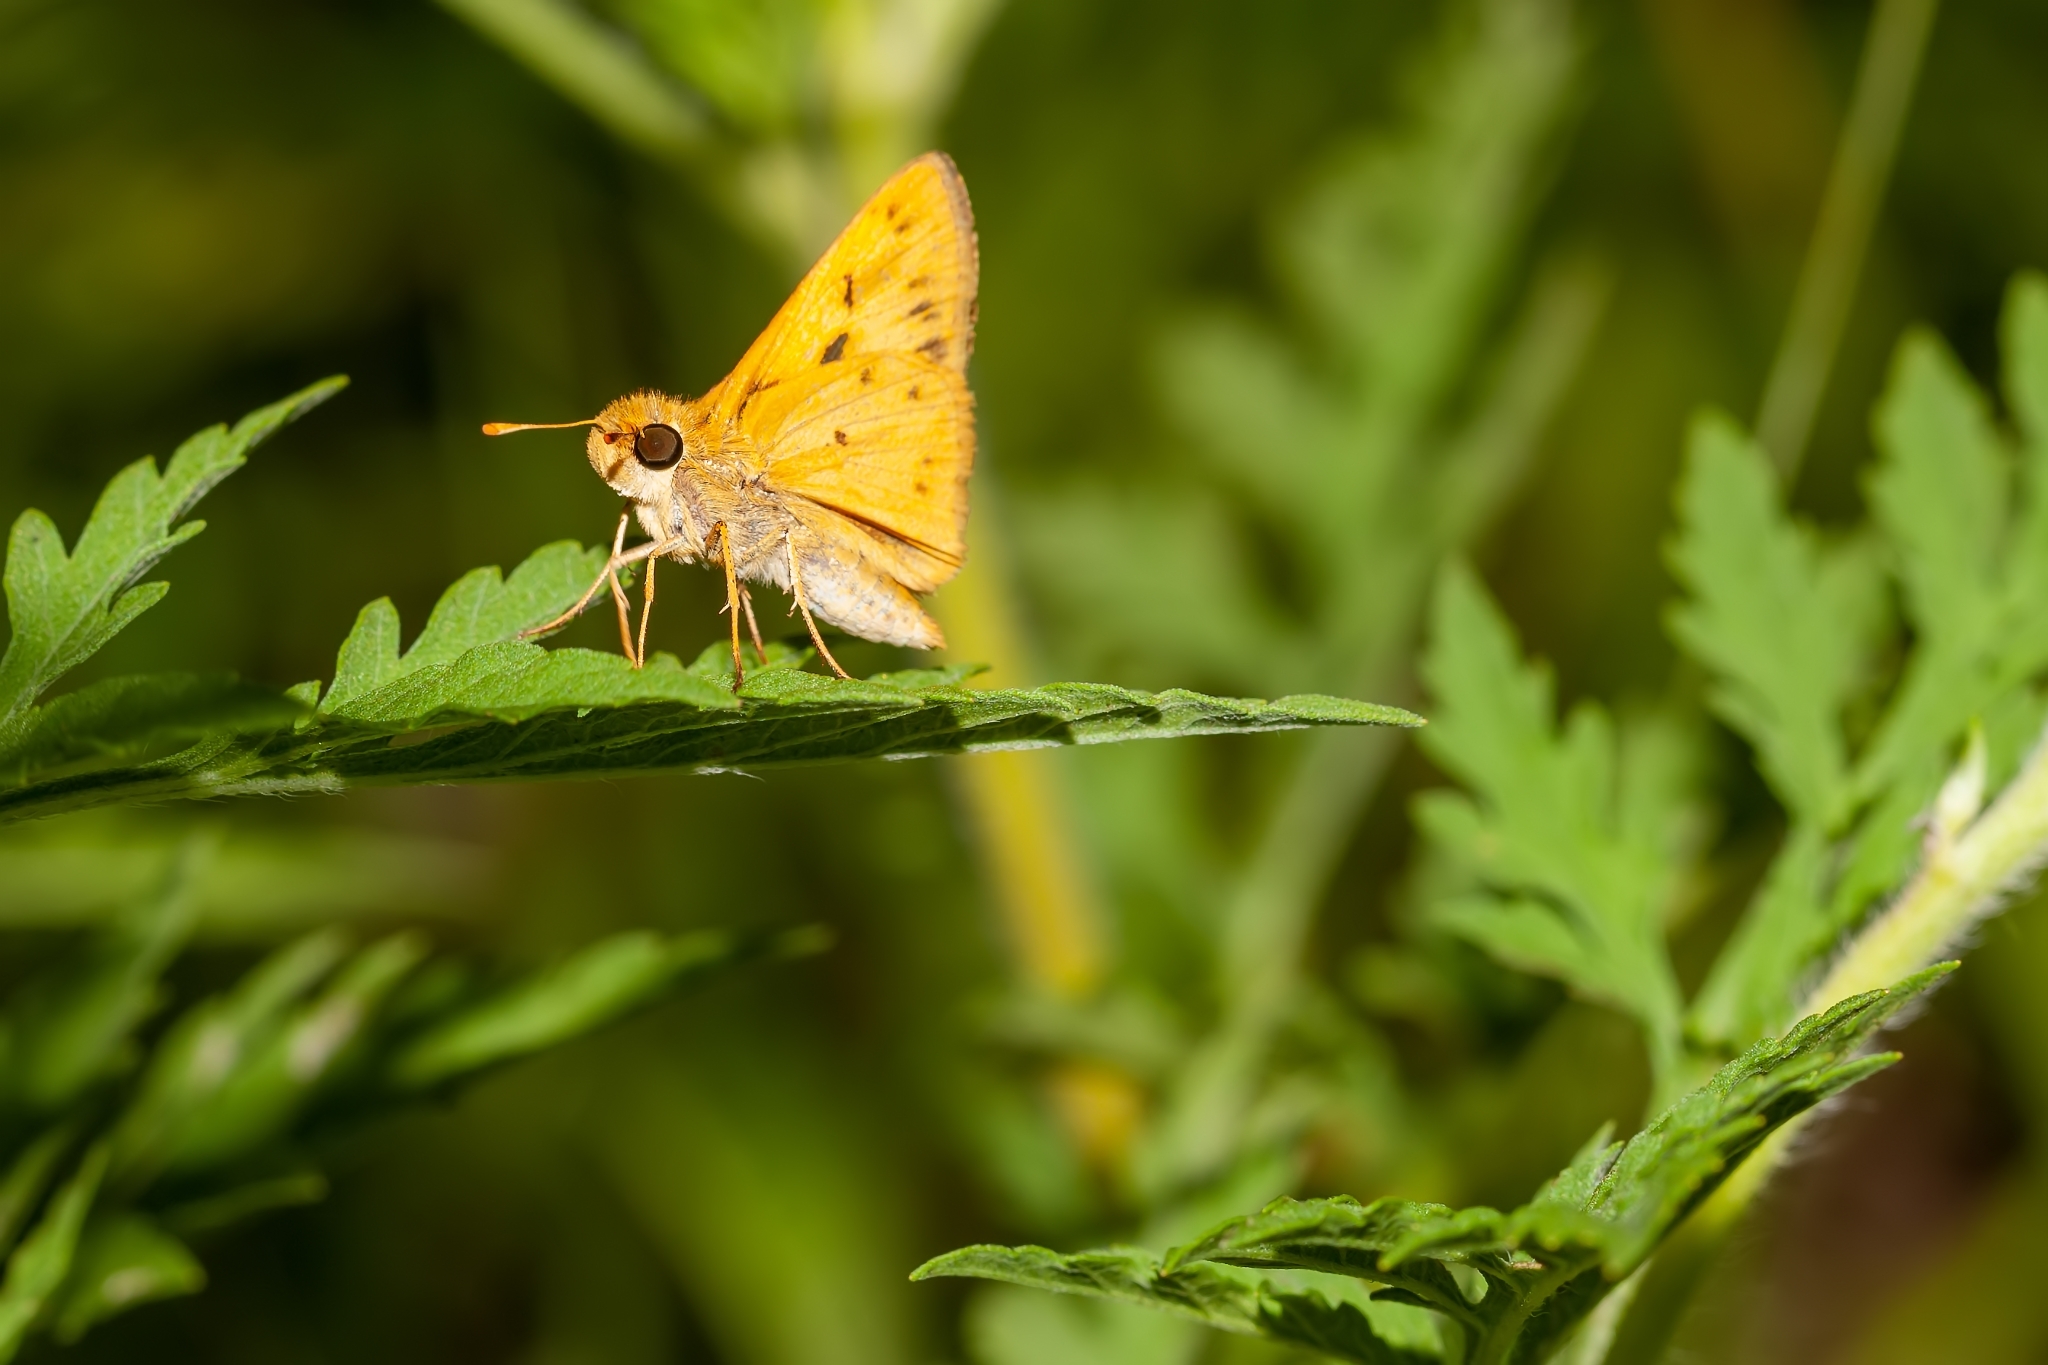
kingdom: Animalia
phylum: Arthropoda
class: Insecta
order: Lepidoptera
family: Hesperiidae
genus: Hylephila
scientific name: Hylephila phyleus
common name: Fiery skipper
